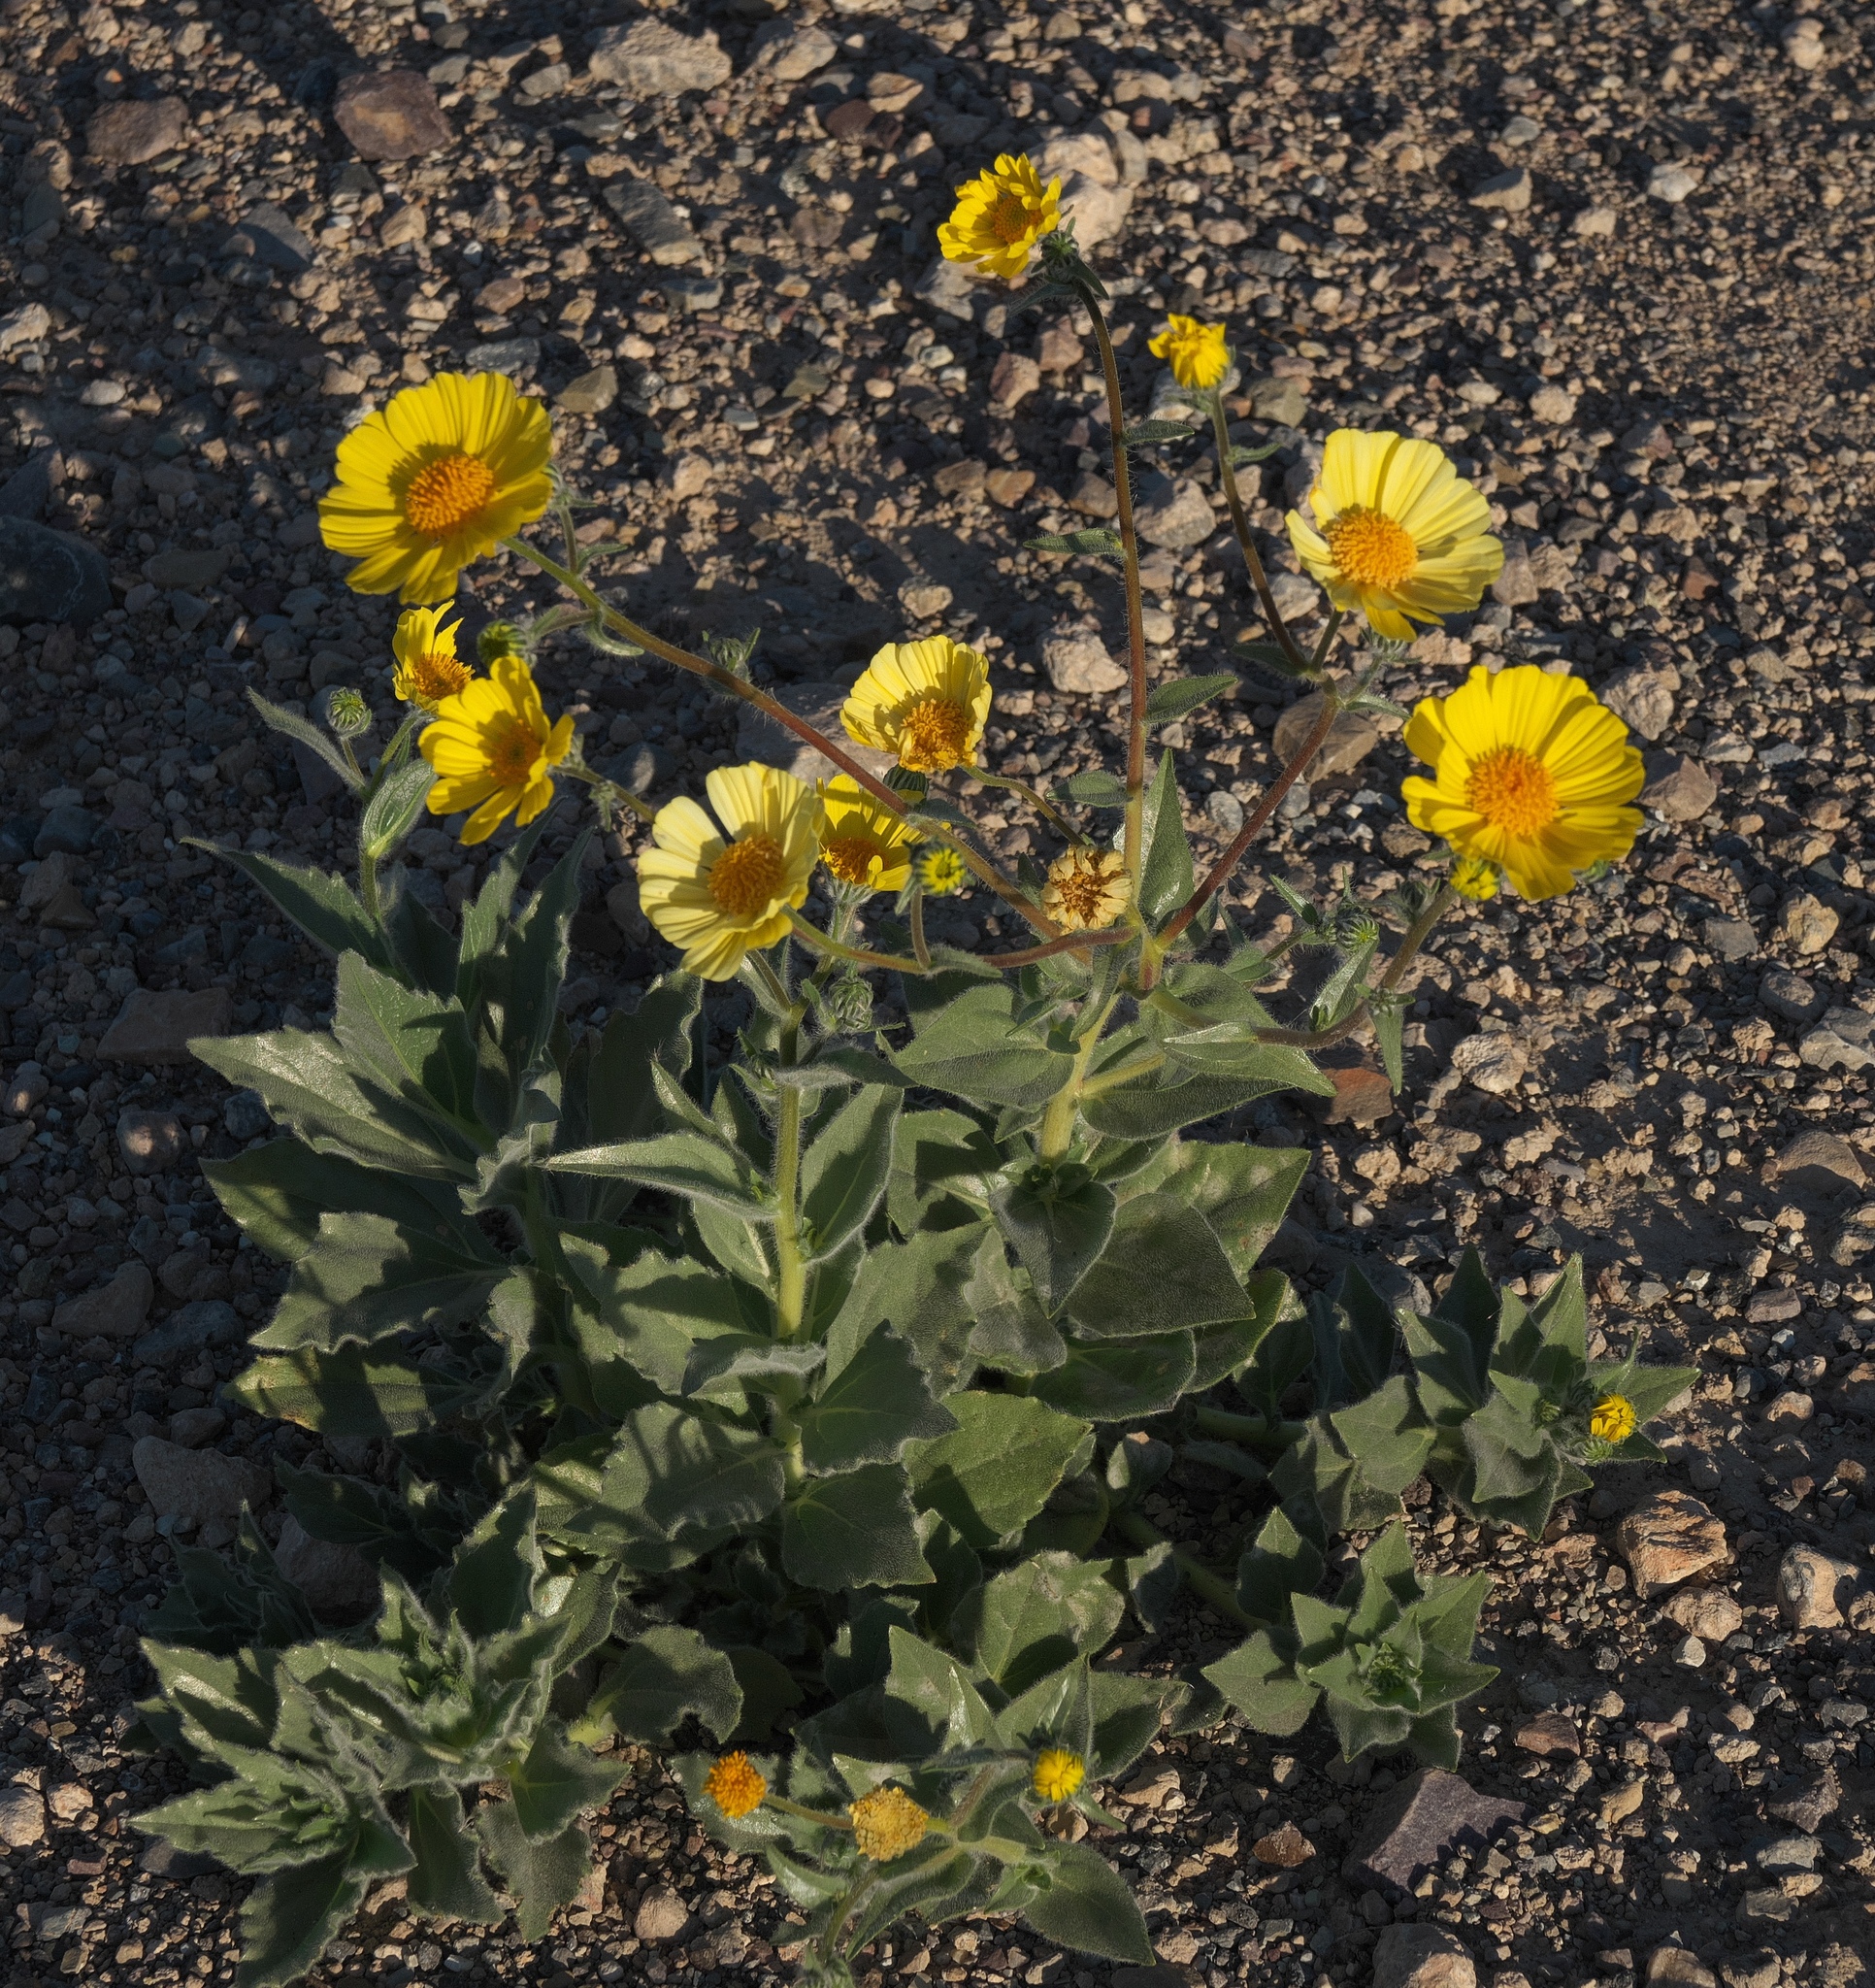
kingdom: Plantae
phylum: Tracheophyta
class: Magnoliopsida
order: Asterales
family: Asteraceae
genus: Geraea
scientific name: Geraea canescens
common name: Desert-gold
